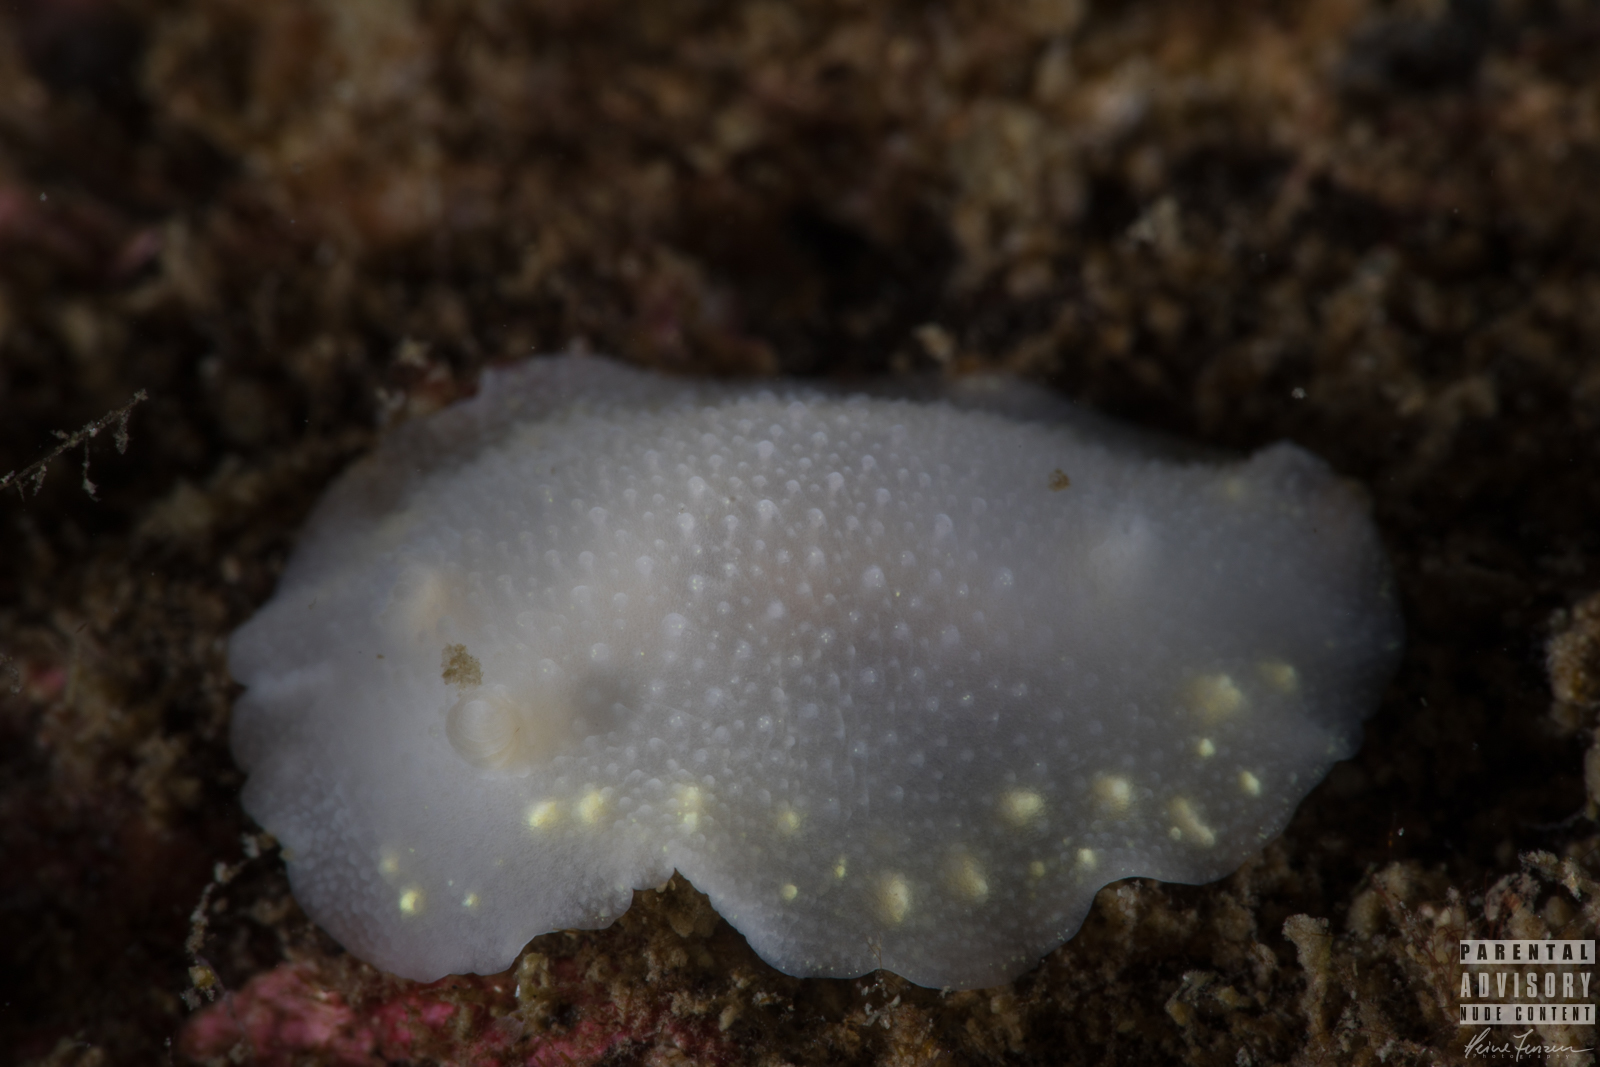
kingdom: Animalia
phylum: Mollusca
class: Gastropoda
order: Nudibranchia
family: Cadlinidae
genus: Cadlina
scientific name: Cadlina laevis
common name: White atlantic cadlina
